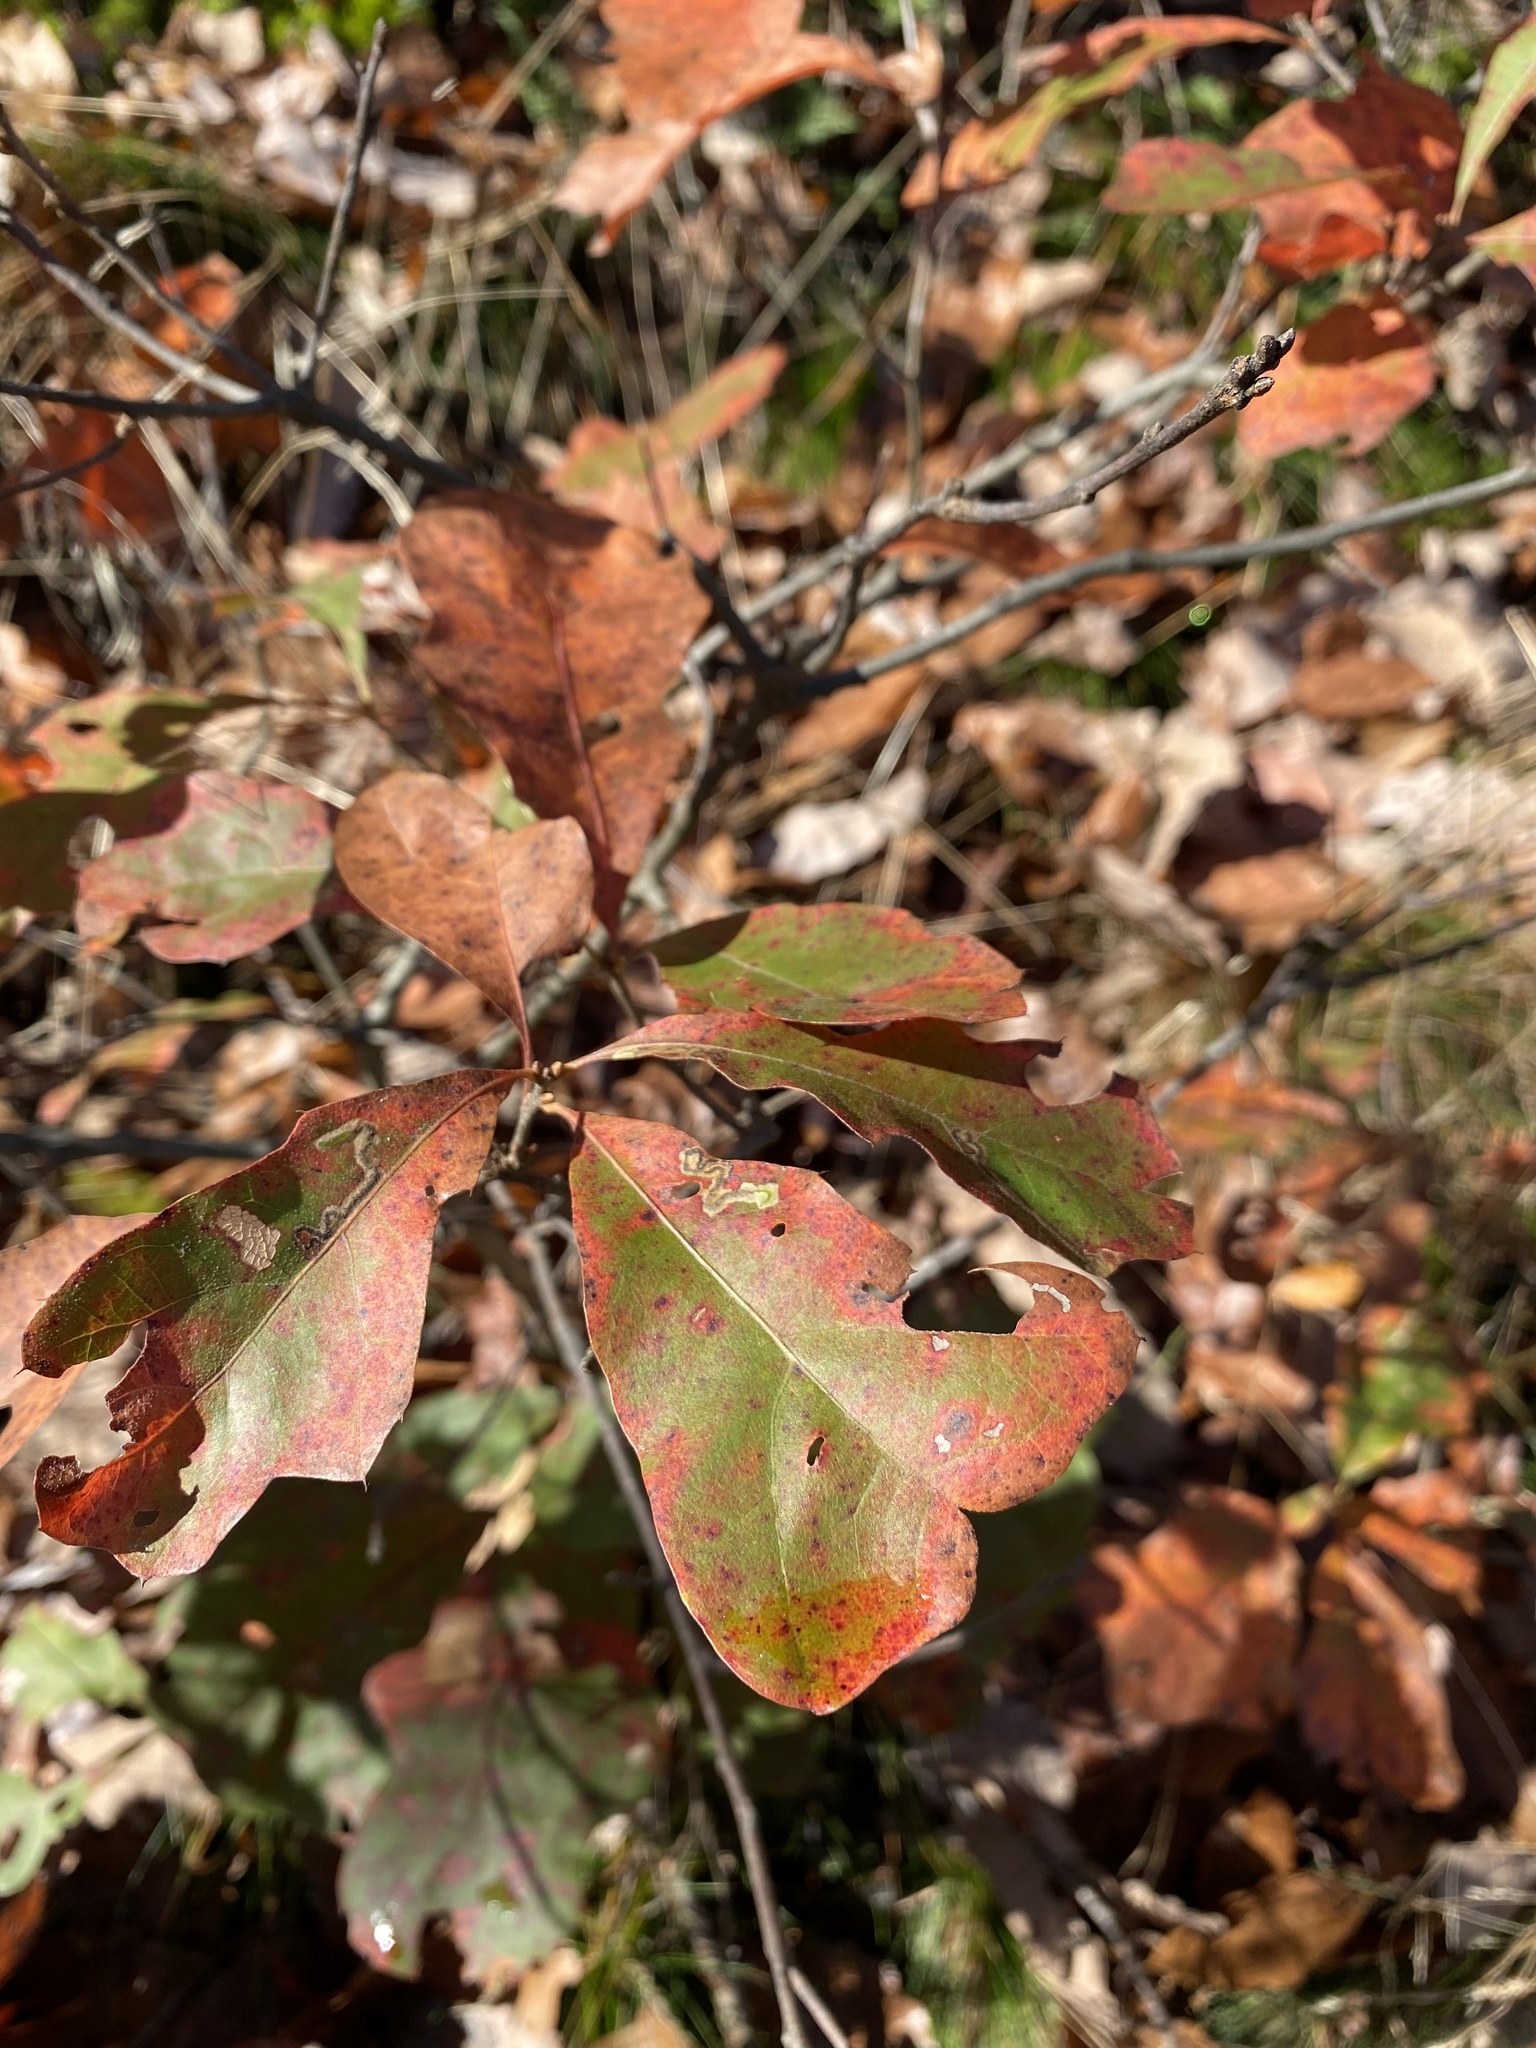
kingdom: Plantae
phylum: Tracheophyta
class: Magnoliopsida
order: Fagales
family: Fagaceae
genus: Quercus
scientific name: Quercus ilicifolia
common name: Bear oak
